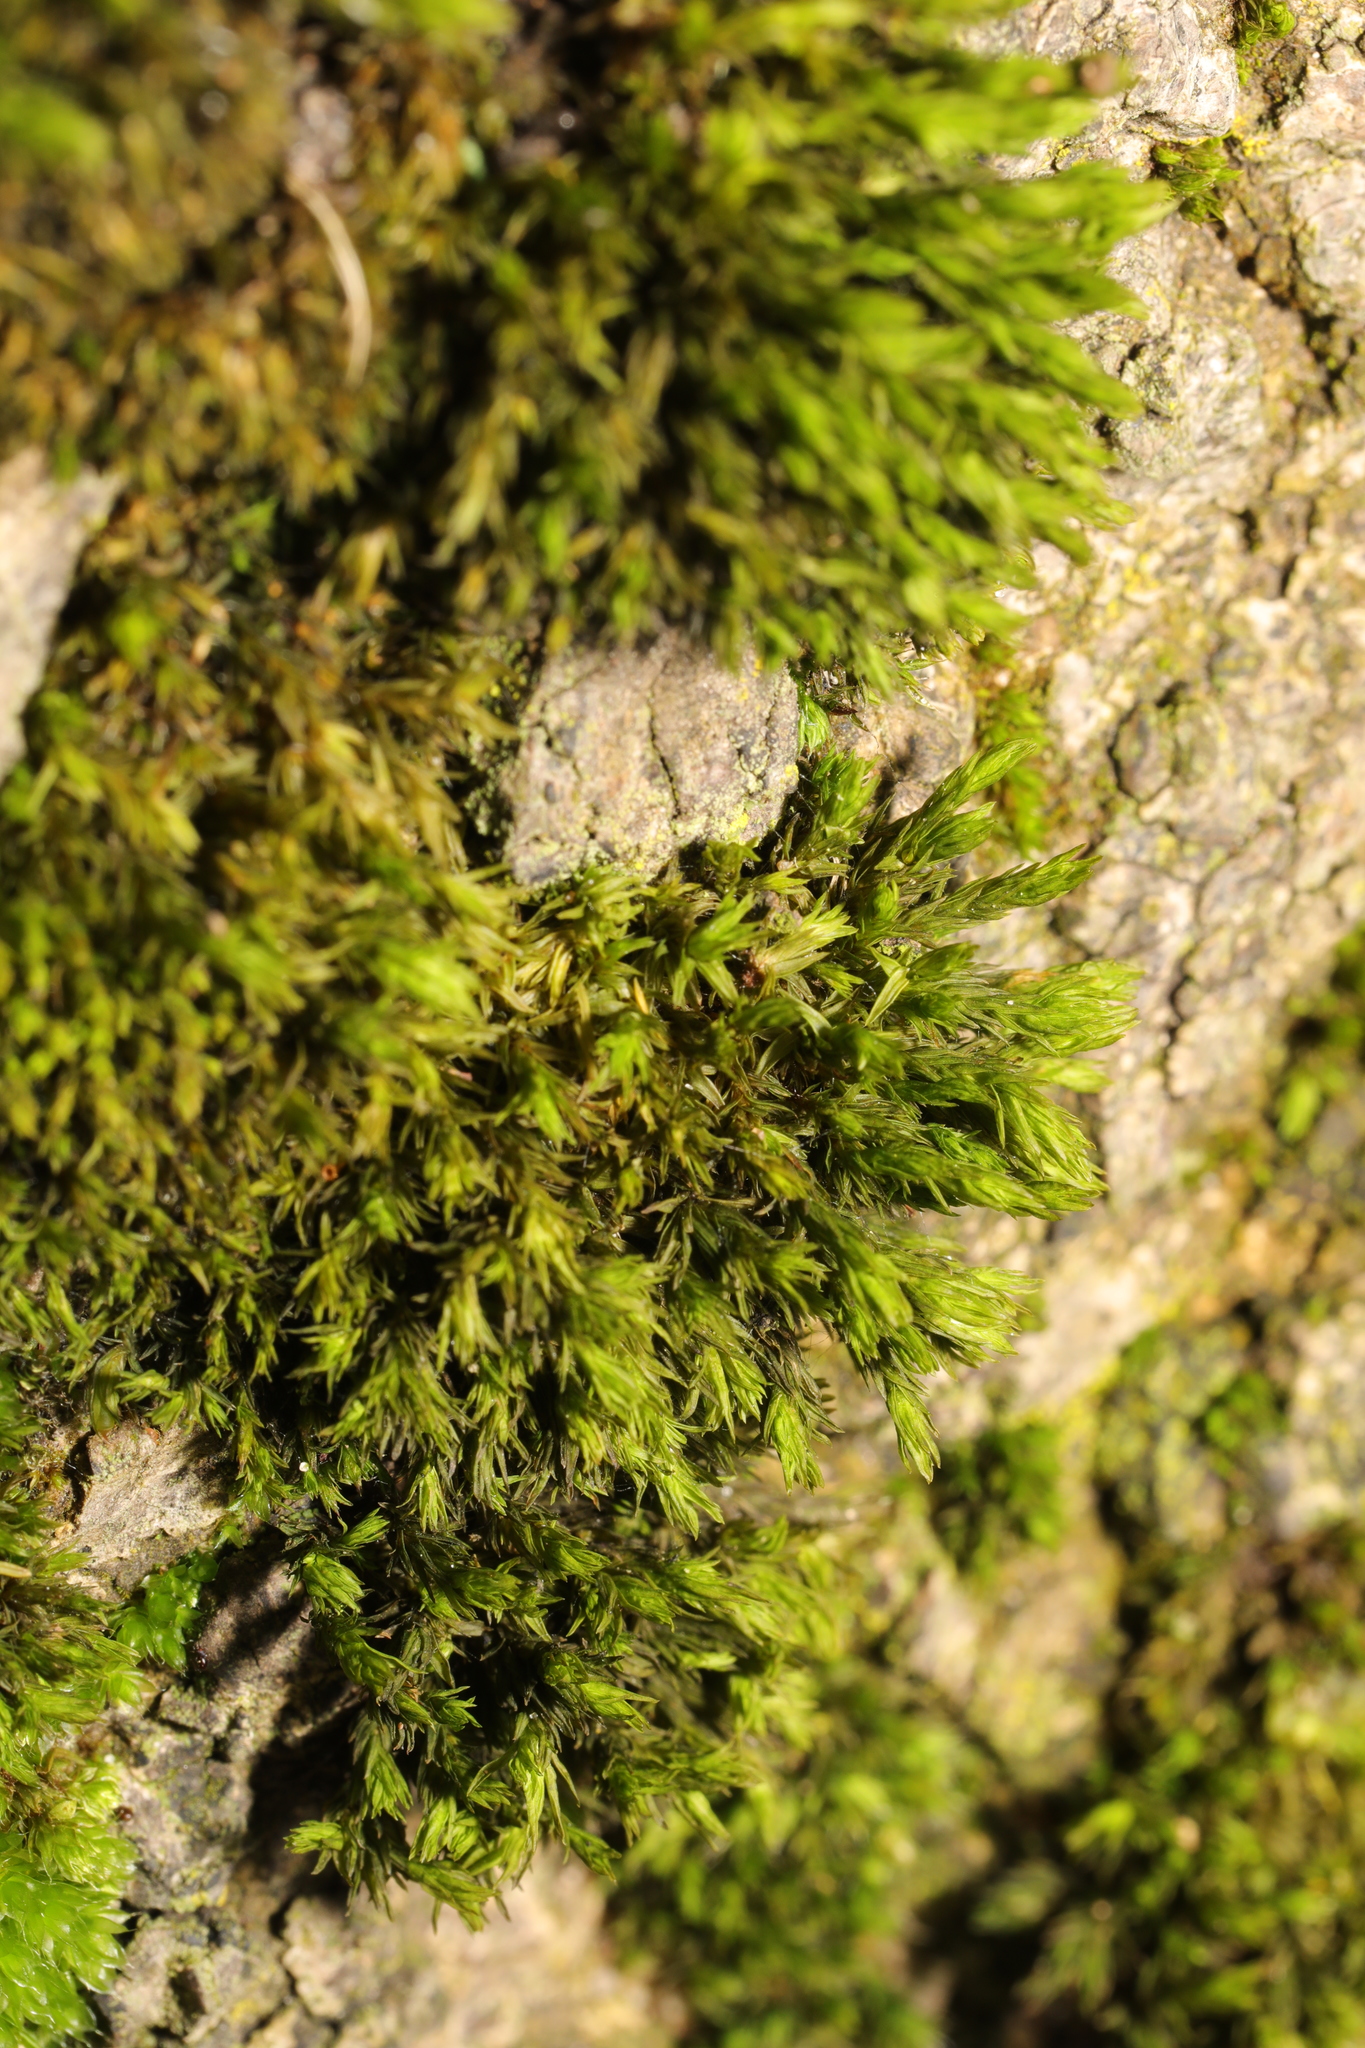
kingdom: Plantae
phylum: Bryophyta
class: Bryopsida
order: Orthotrichales
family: Orthotrichaceae
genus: Lewinskya
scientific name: Lewinskya affinis
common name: Wood bristle-moss
